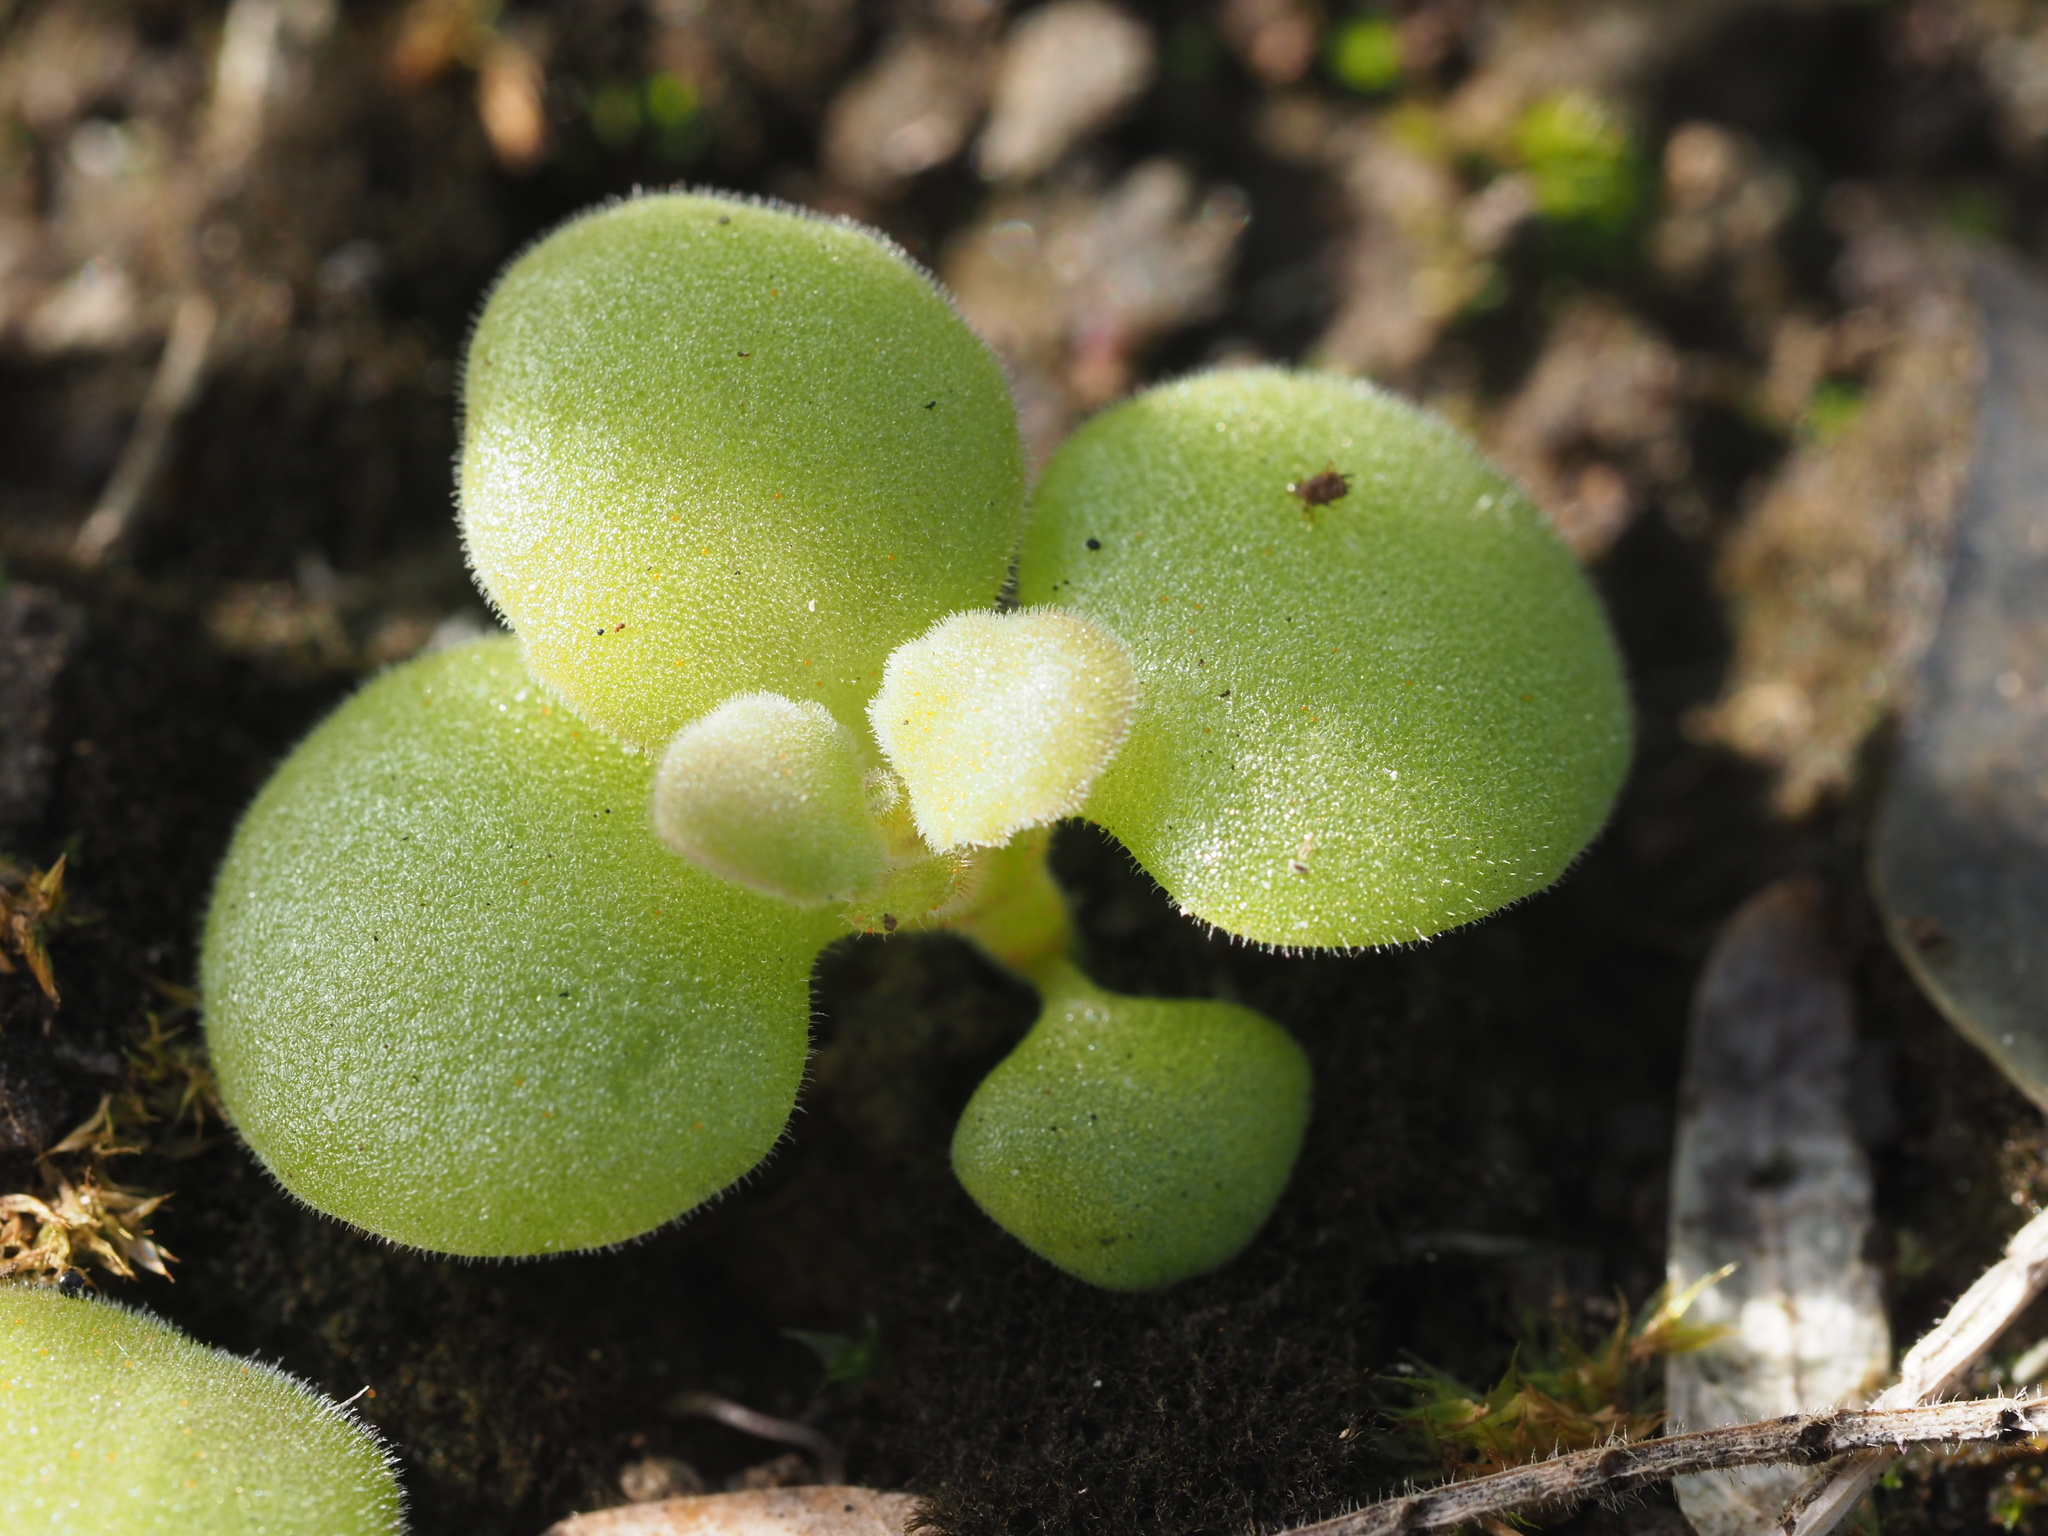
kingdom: Plantae
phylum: Tracheophyta
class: Magnoliopsida
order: Lamiales
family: Lamiaceae
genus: Coleus
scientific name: Coleus prostratus
